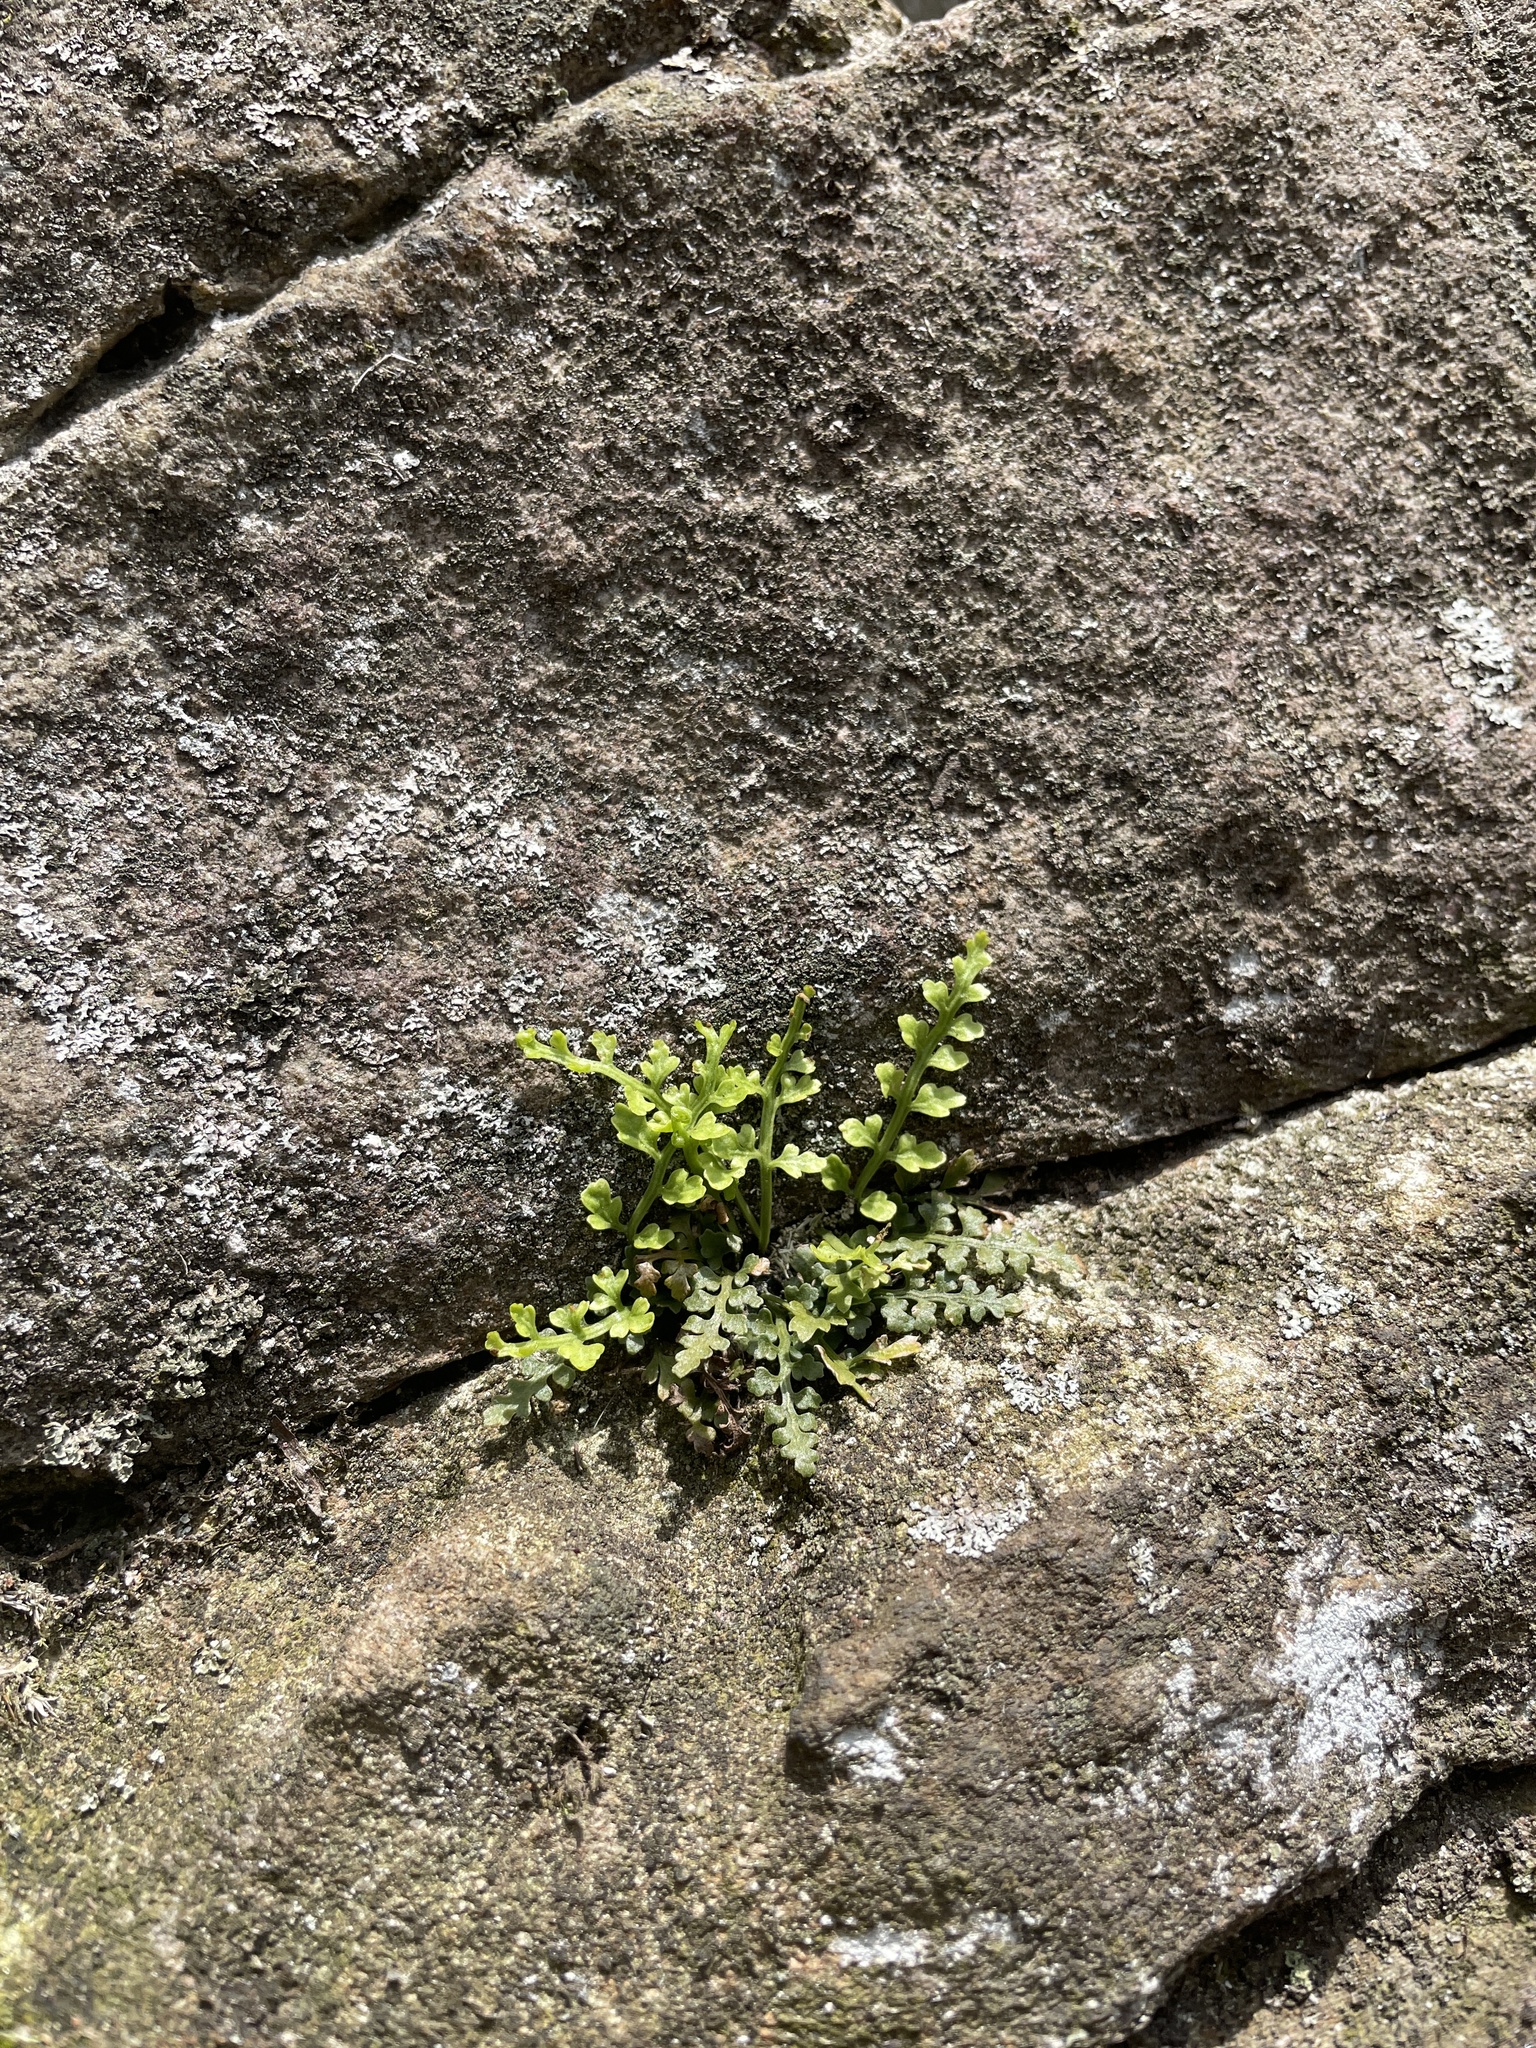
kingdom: Plantae
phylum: Tracheophyta
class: Polypodiopsida
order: Polypodiales
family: Aspleniaceae
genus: Asplenium
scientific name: Asplenium montanum
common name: Mountain spleenwort
